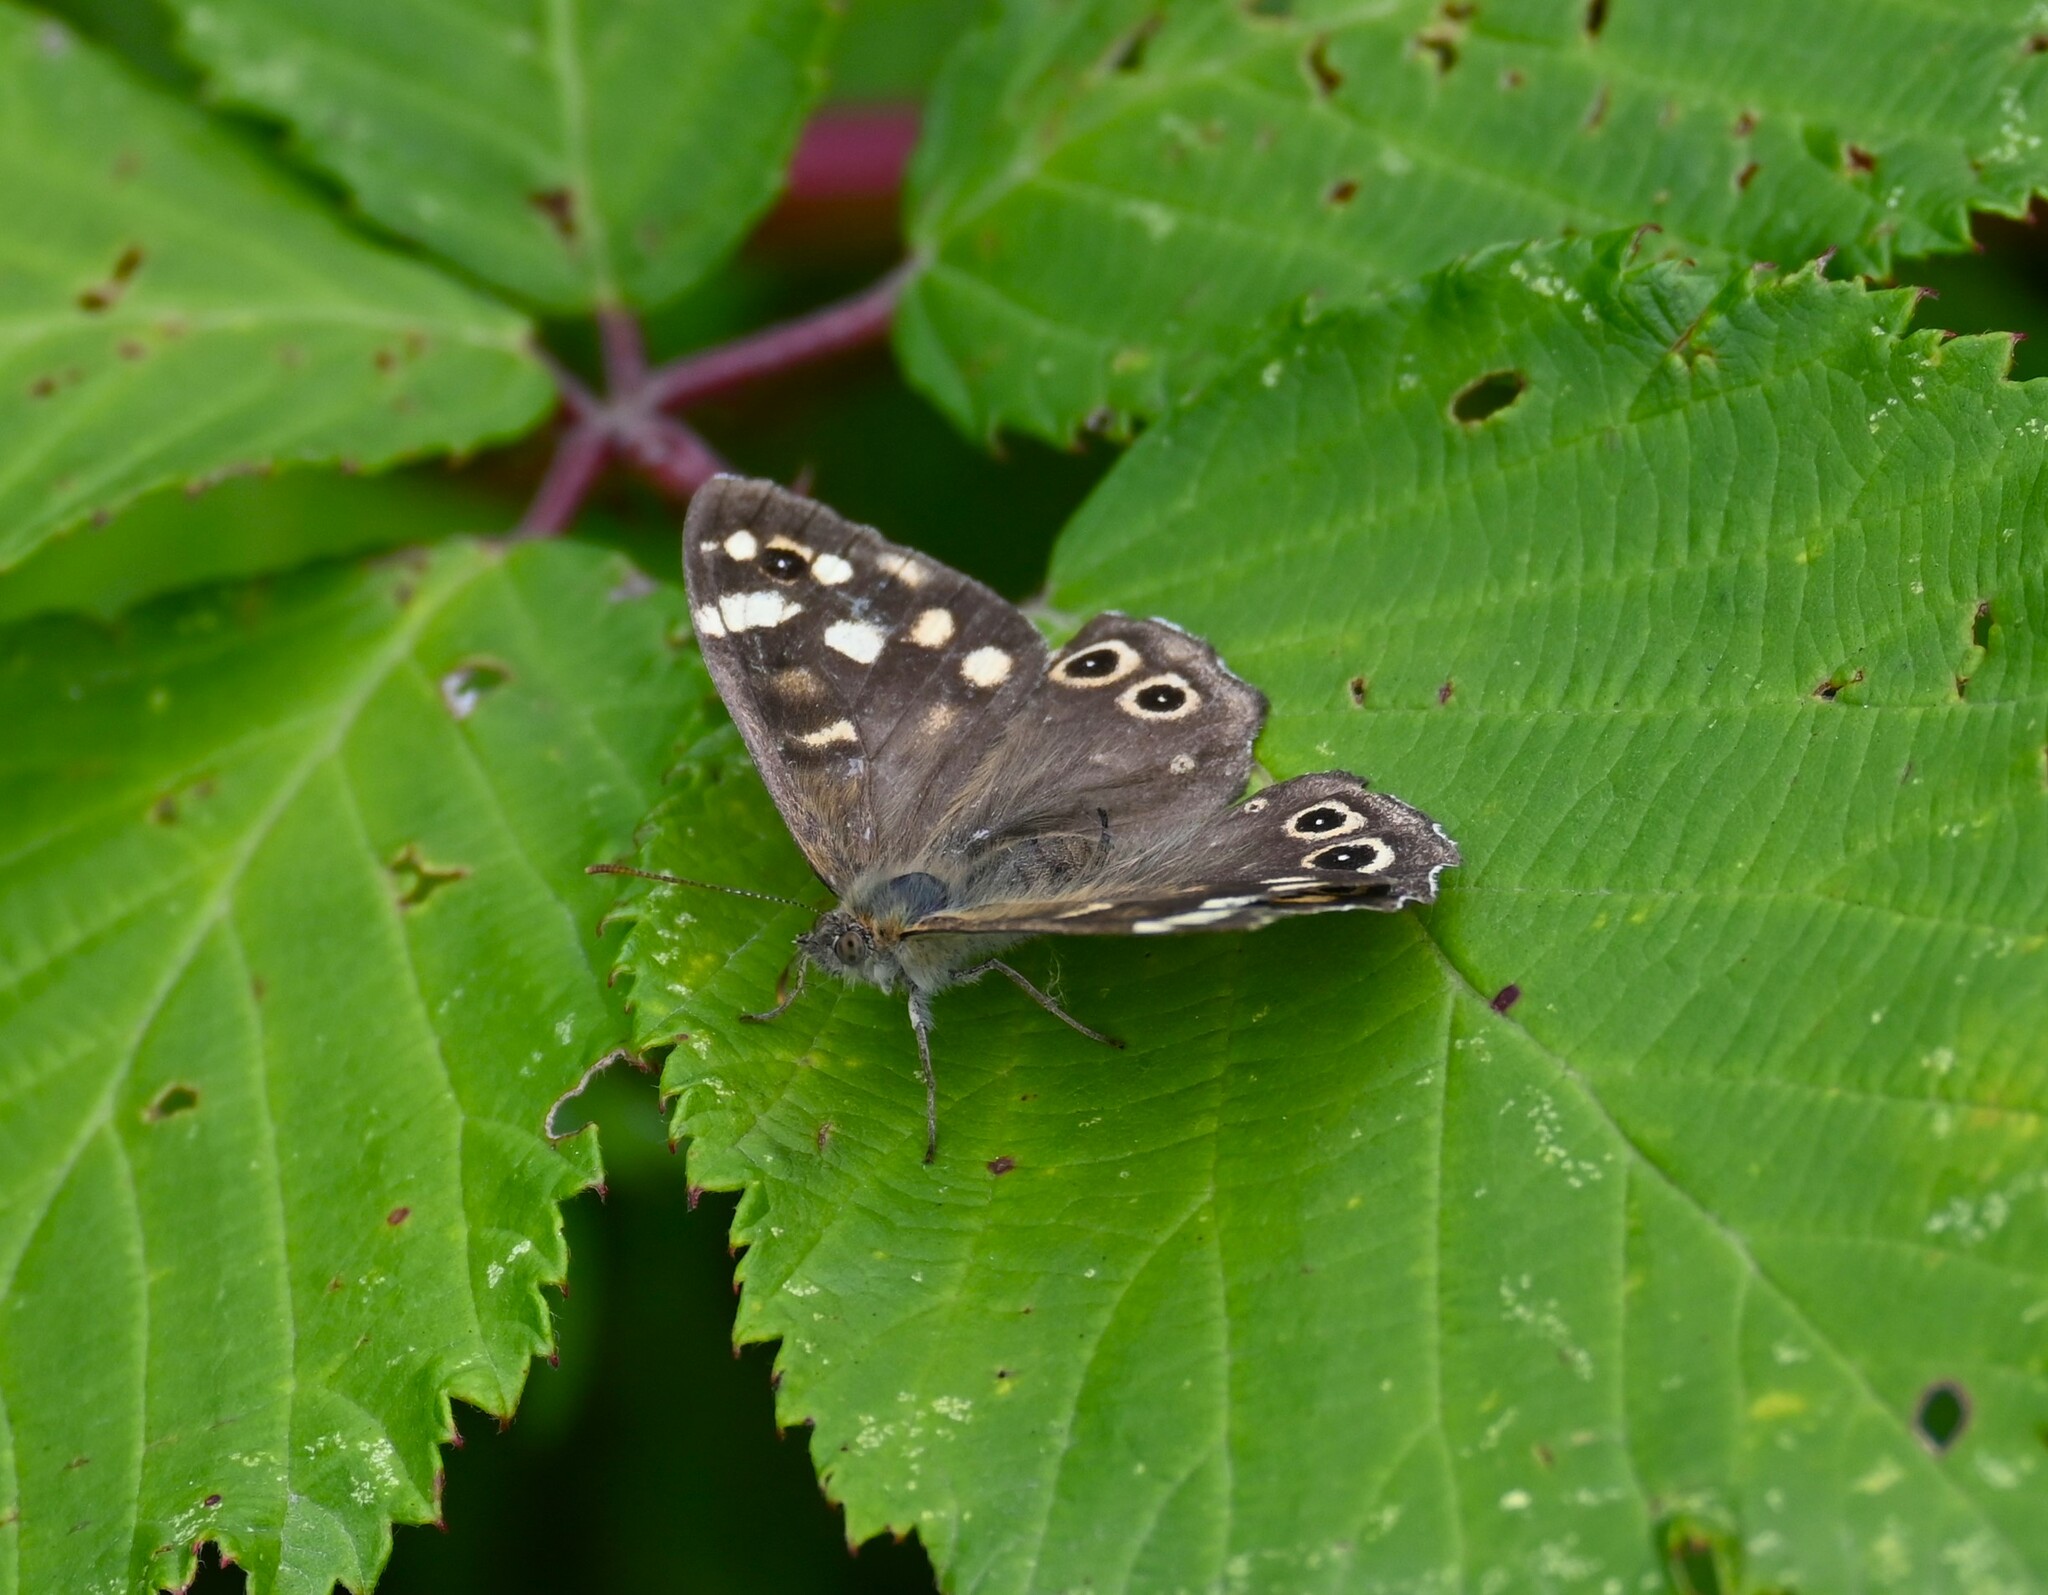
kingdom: Animalia
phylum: Arthropoda
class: Insecta
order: Lepidoptera
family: Nymphalidae
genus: Pararge
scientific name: Pararge aegeria
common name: Speckled wood
